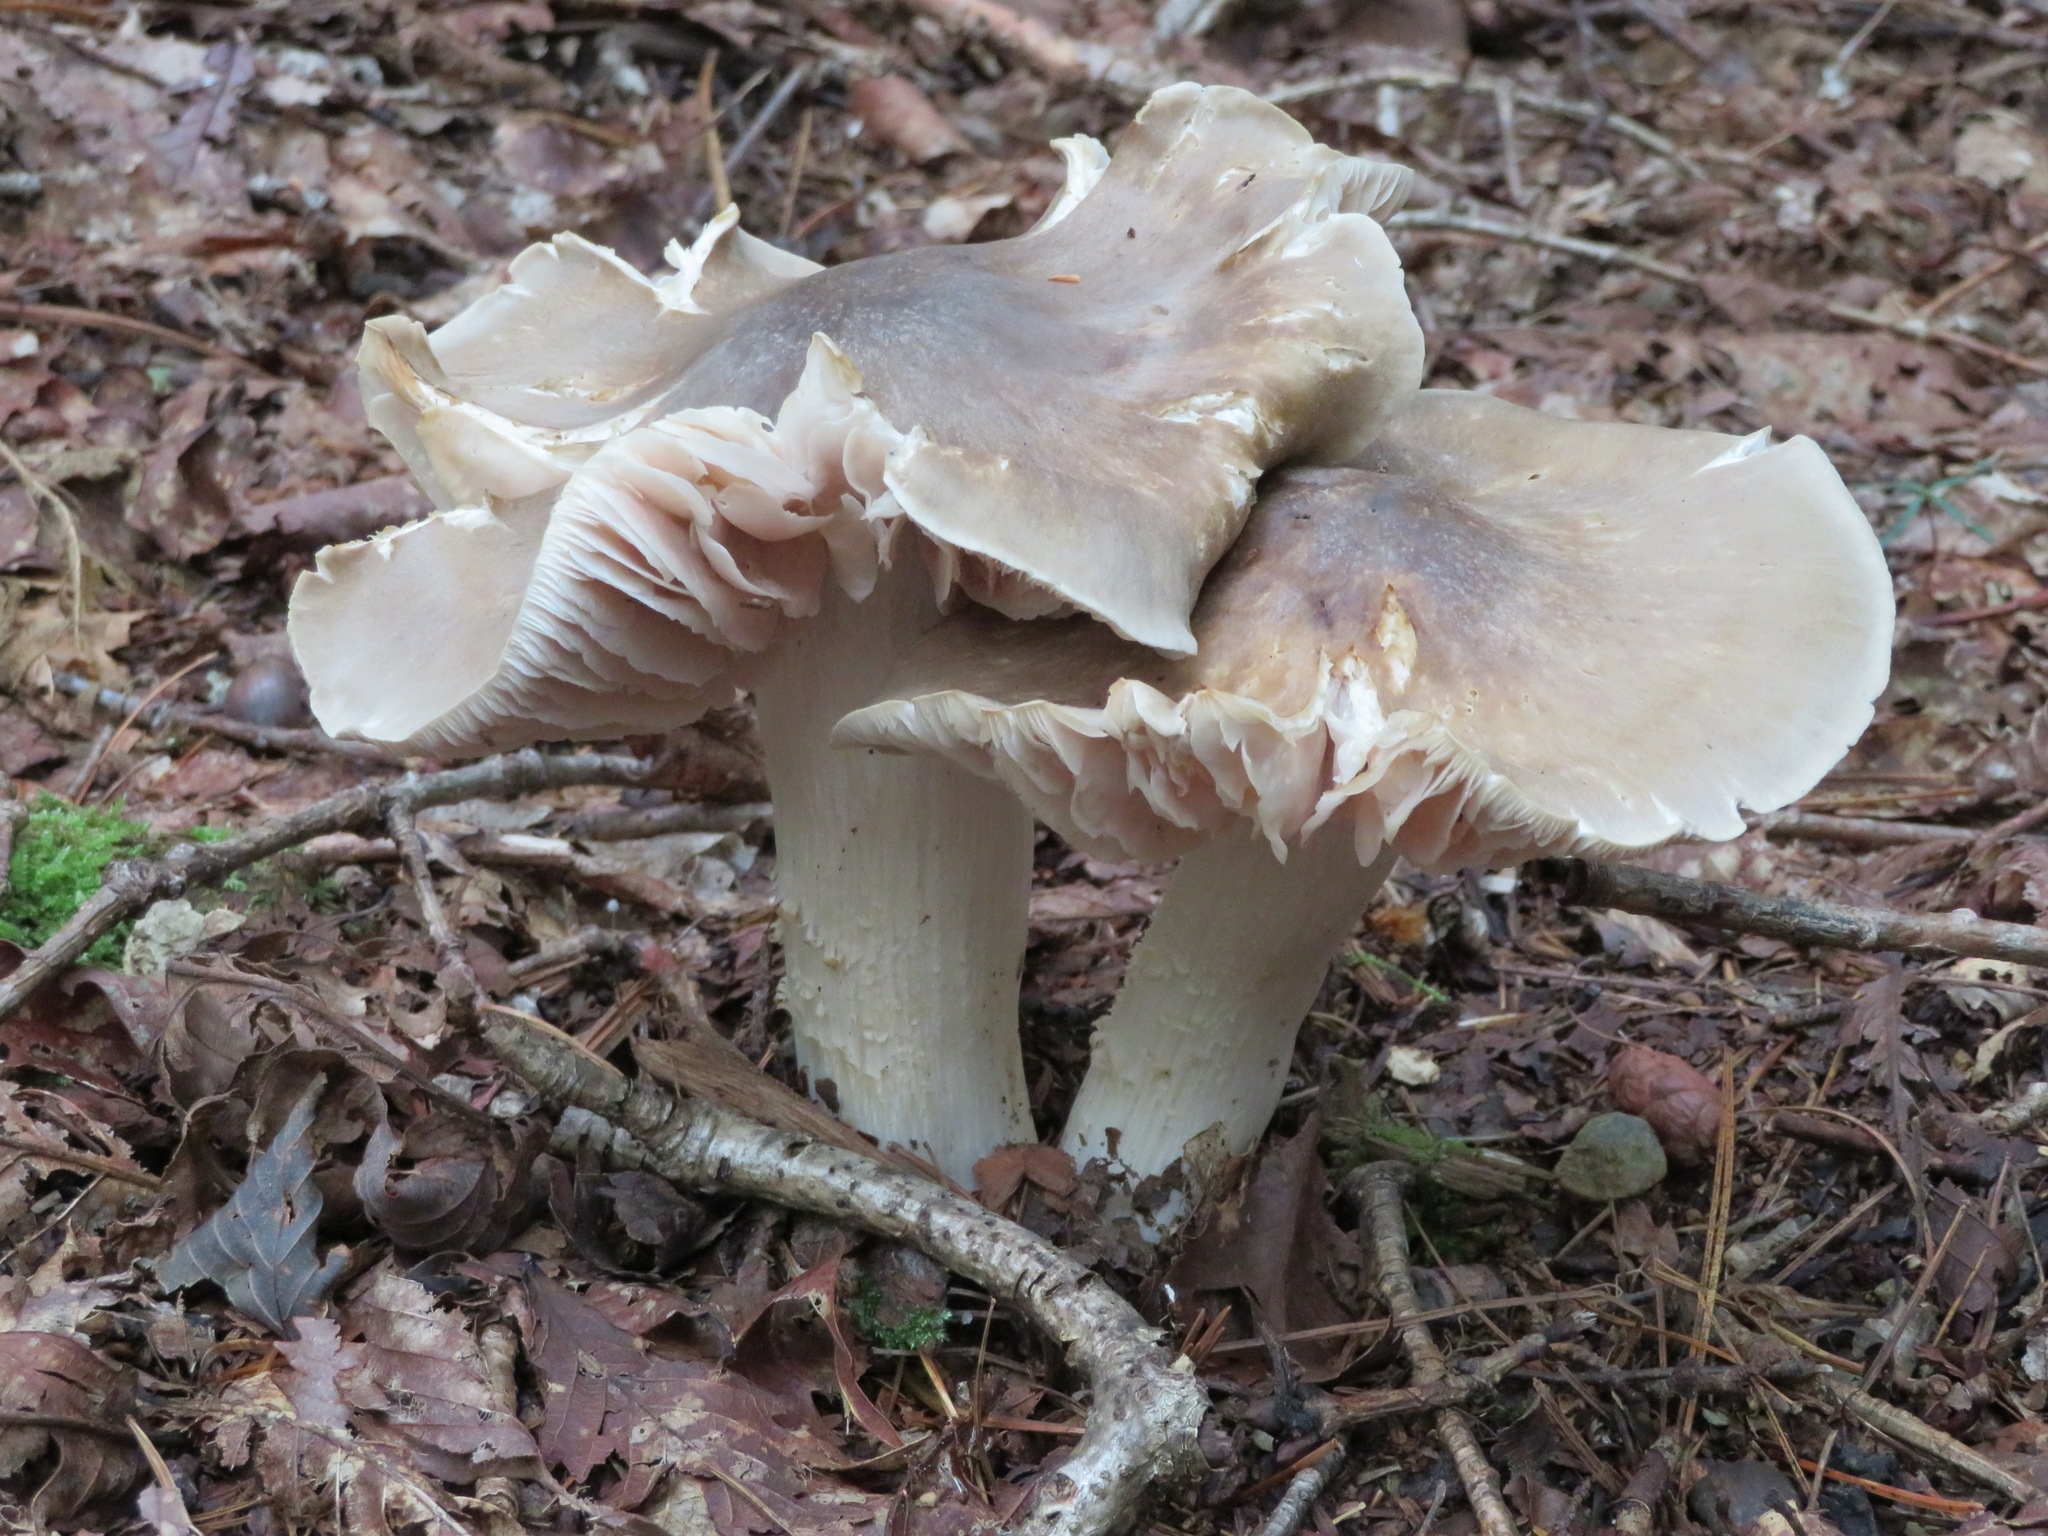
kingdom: Fungi
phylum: Basidiomycota
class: Agaricomycetes
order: Agaricales
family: Entolomataceae
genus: Entoloma
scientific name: Entoloma sarcopus
